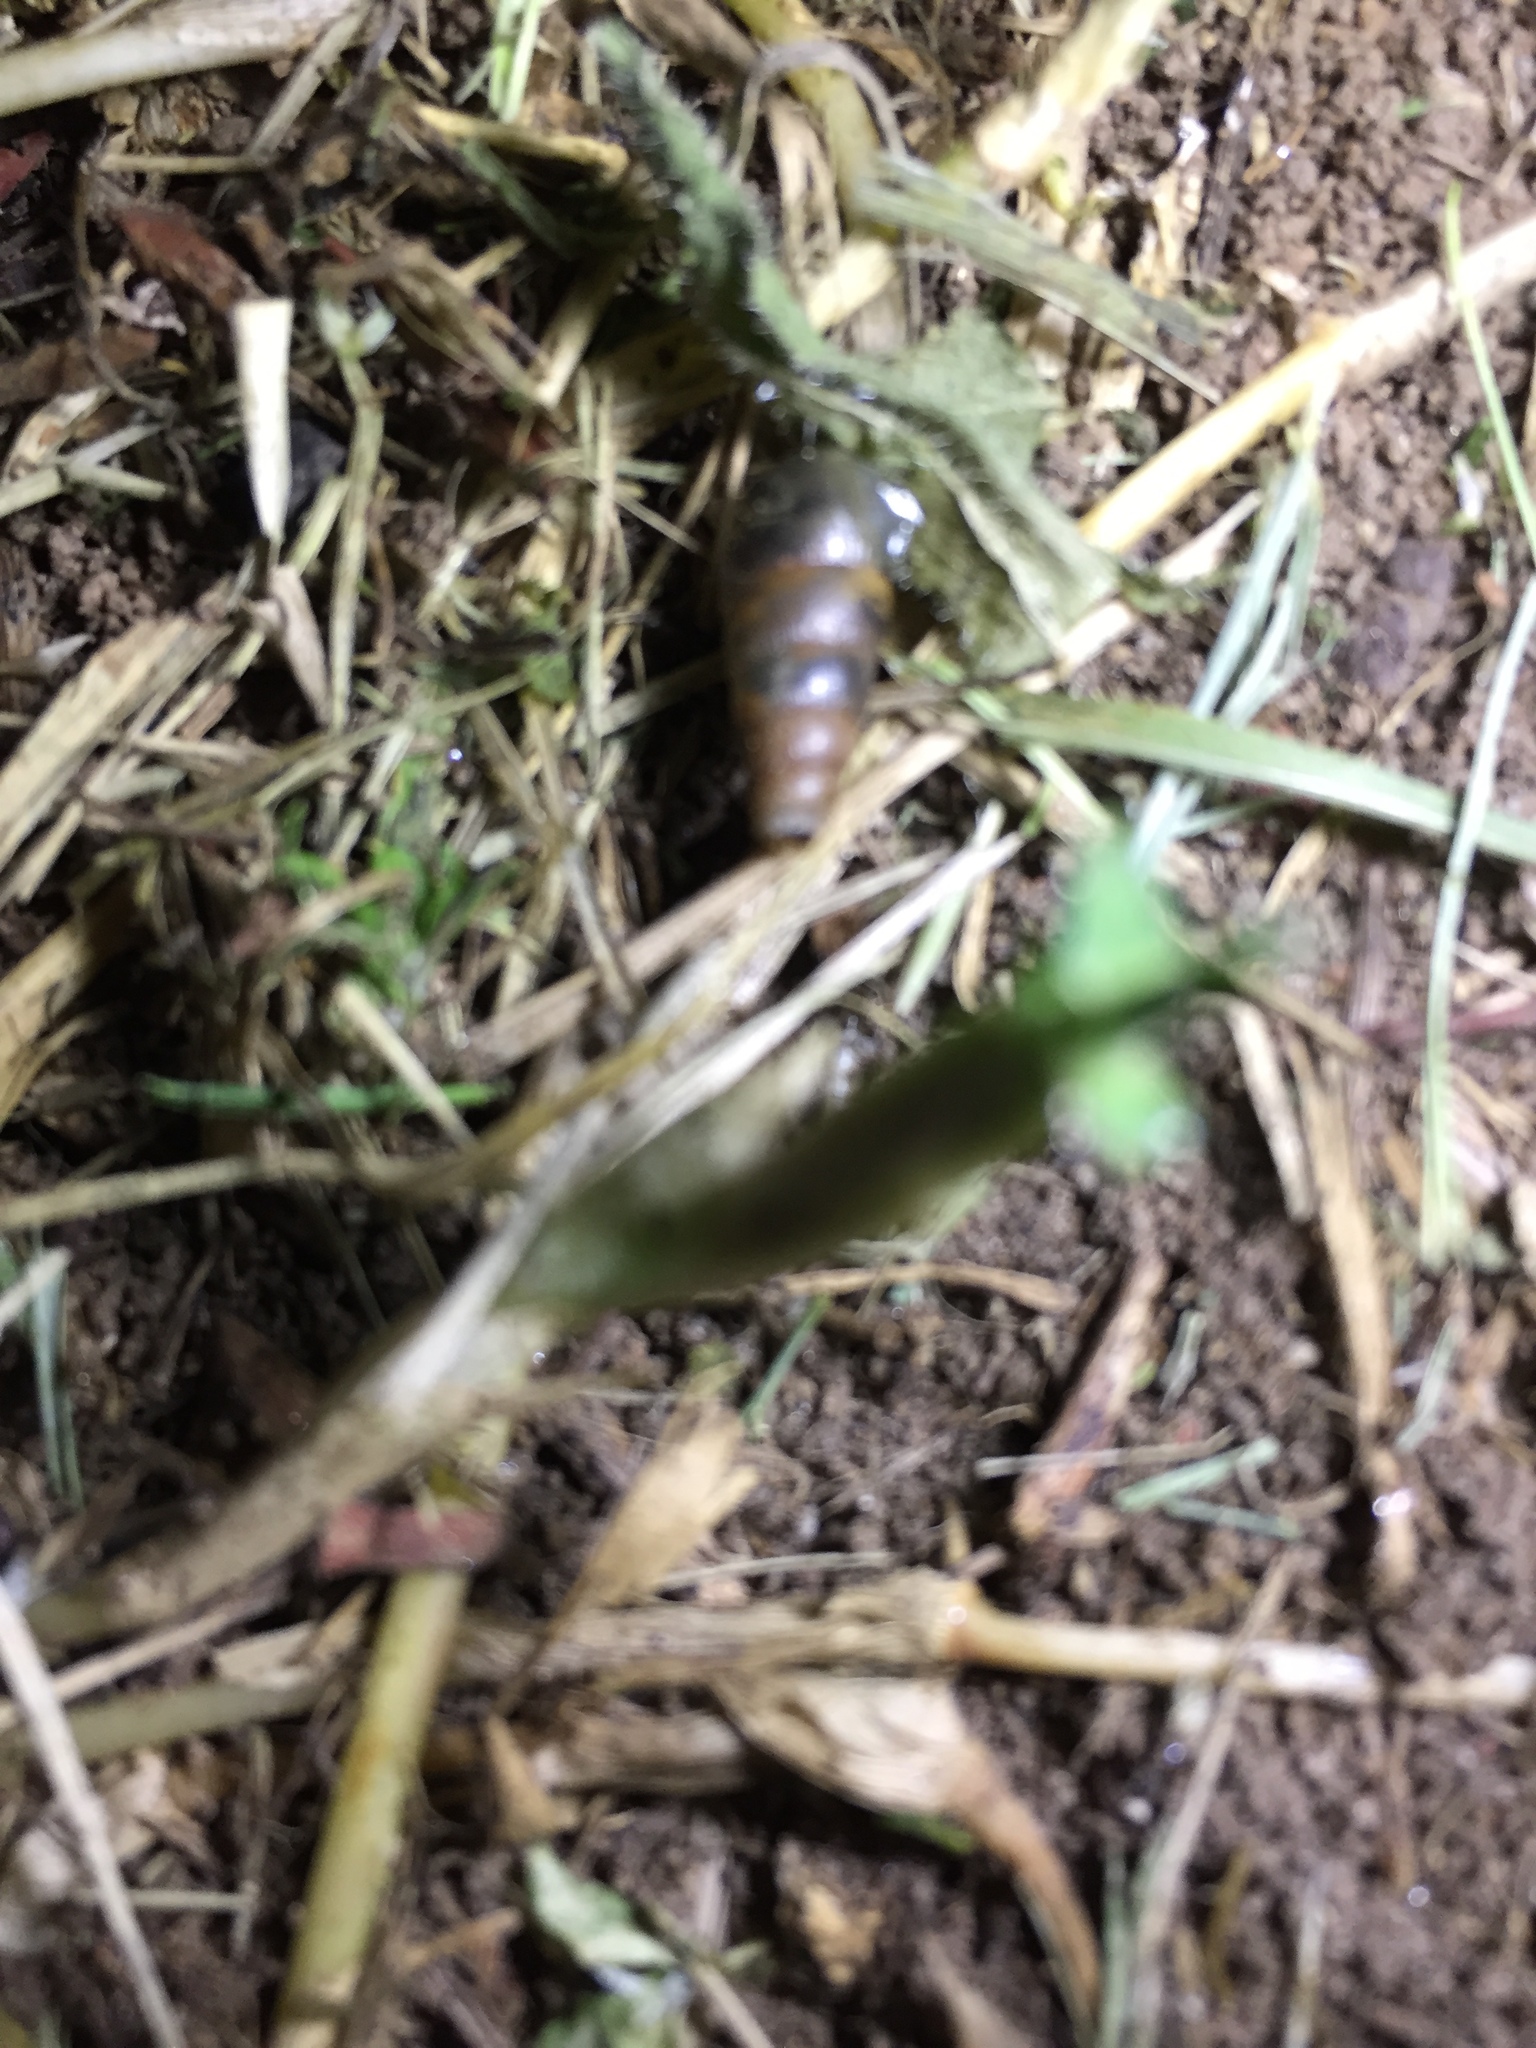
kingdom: Animalia
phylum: Mollusca
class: Gastropoda
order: Stylommatophora
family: Achatinidae
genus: Rumina
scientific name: Rumina decollata
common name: Decollate snail
